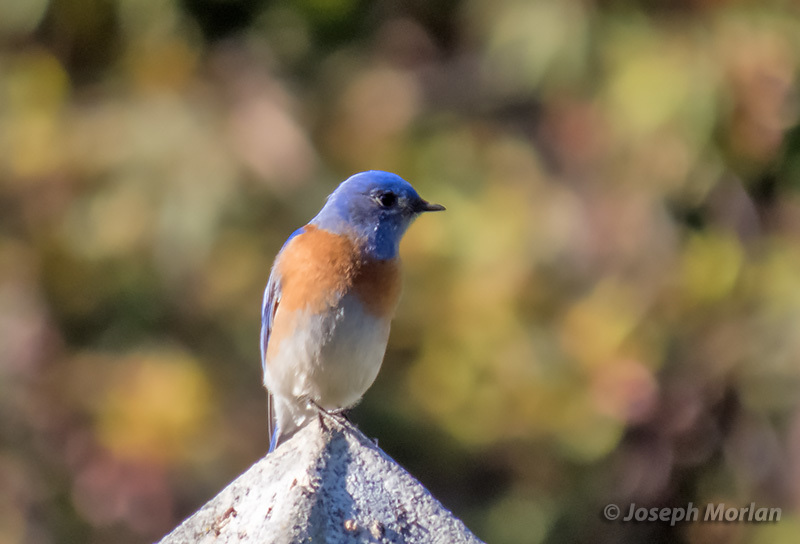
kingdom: Animalia
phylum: Chordata
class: Aves
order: Passeriformes
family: Turdidae
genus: Sialia
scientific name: Sialia mexicana
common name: Western bluebird
